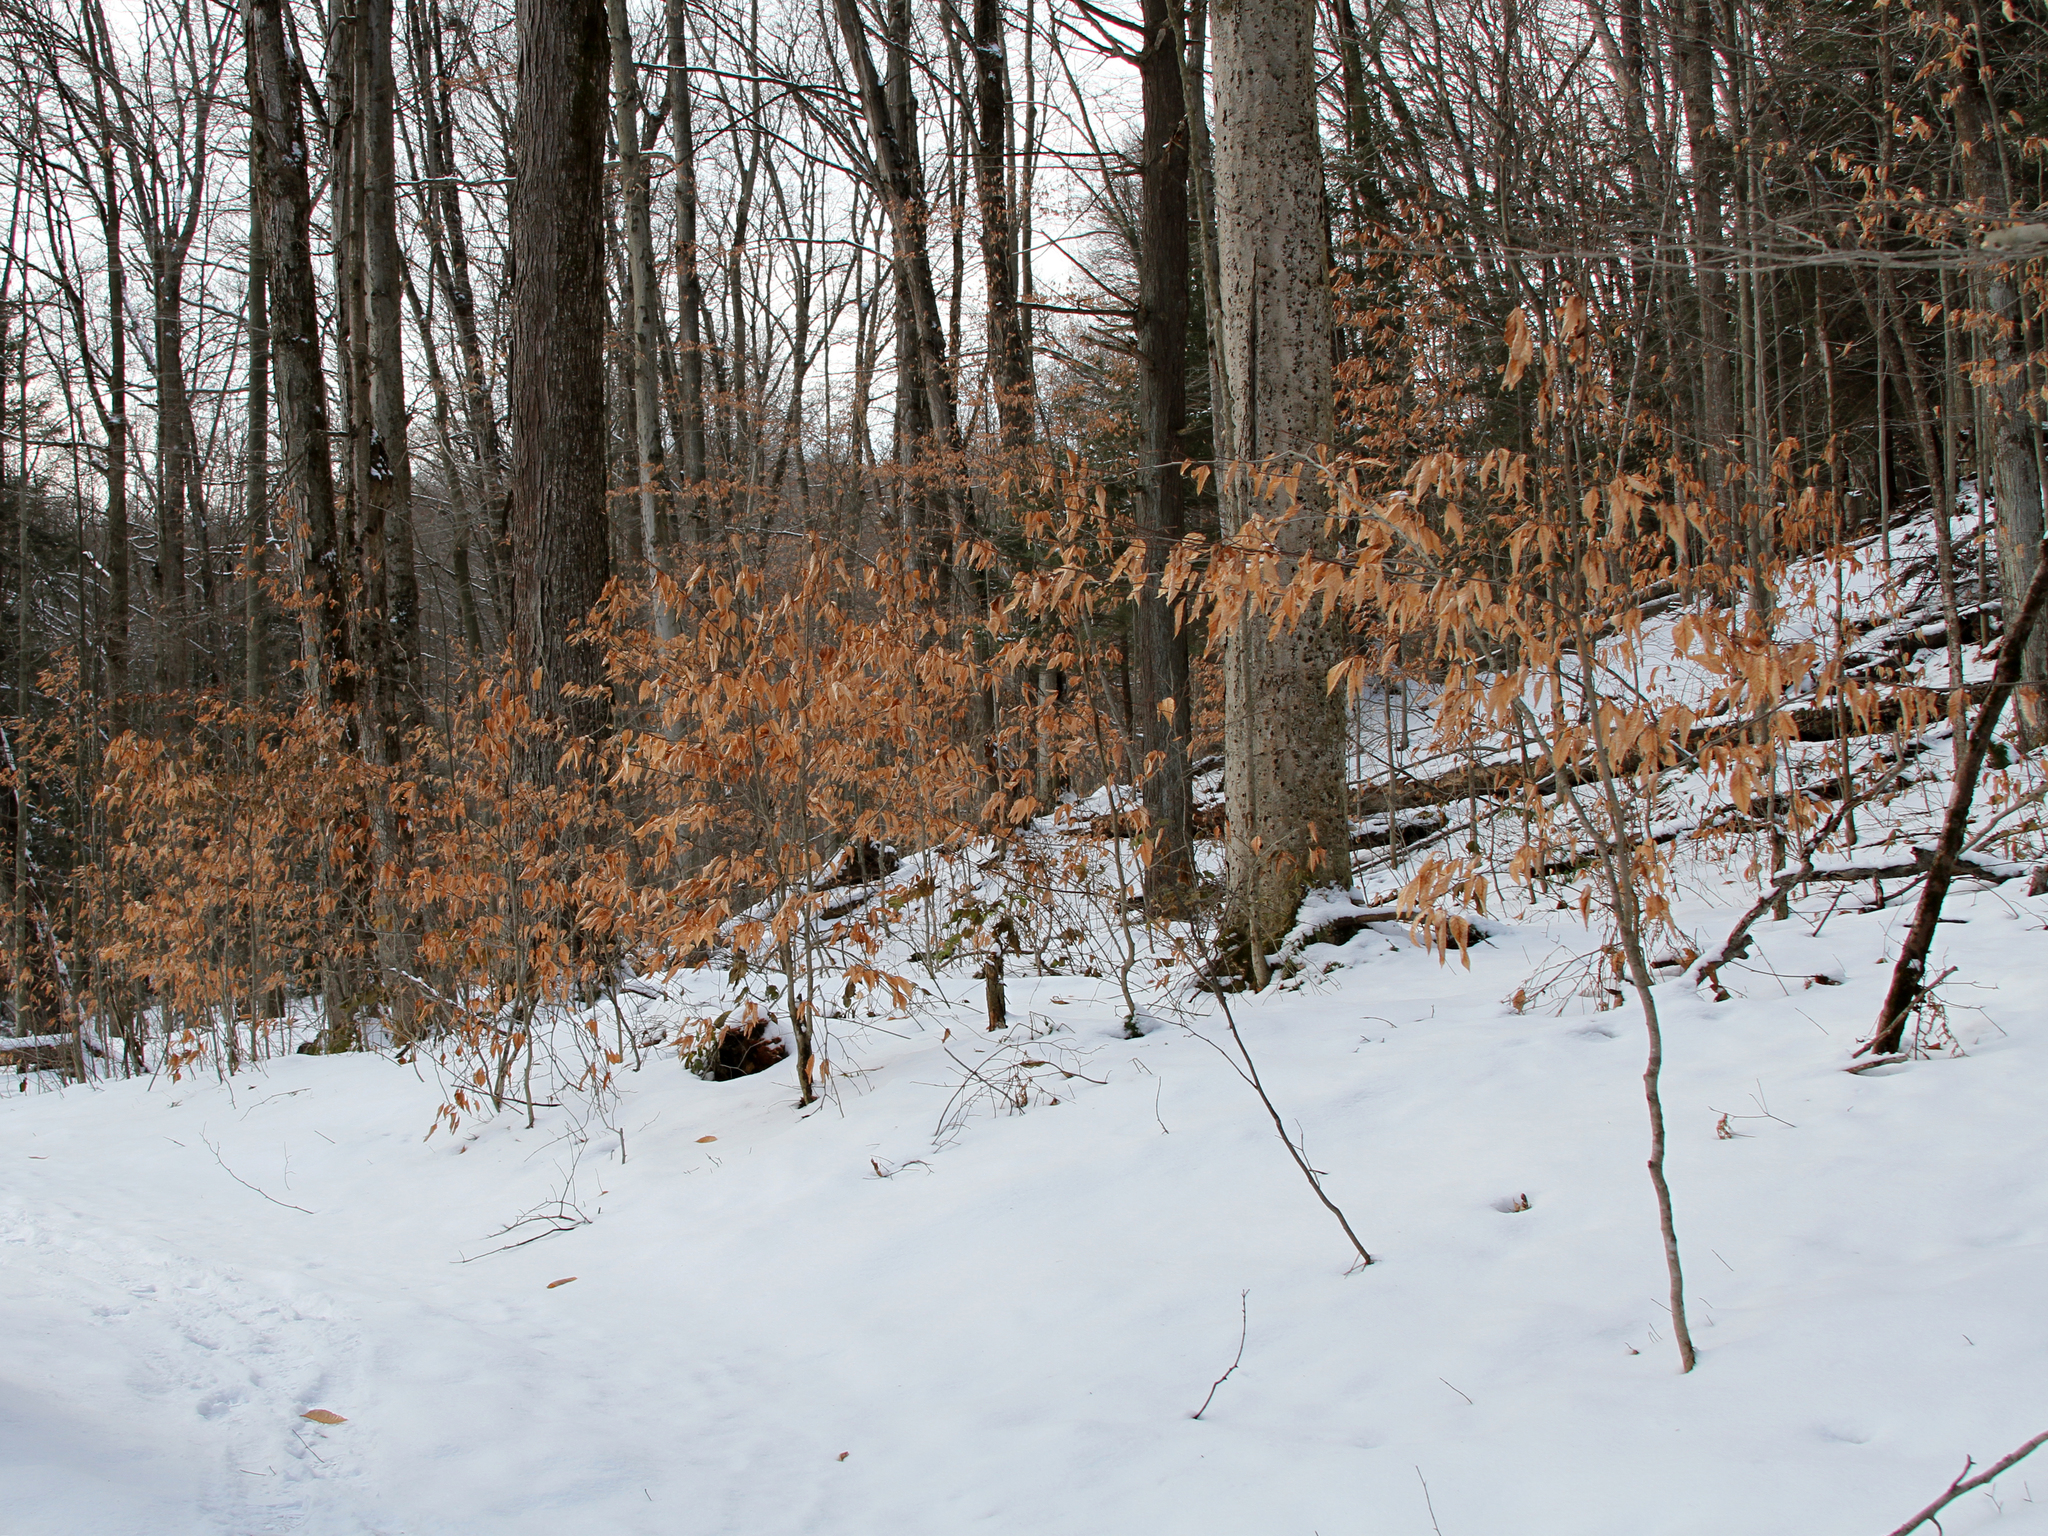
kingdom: Plantae
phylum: Tracheophyta
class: Magnoliopsida
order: Fagales
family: Fagaceae
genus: Fagus
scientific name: Fagus grandifolia
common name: American beech
